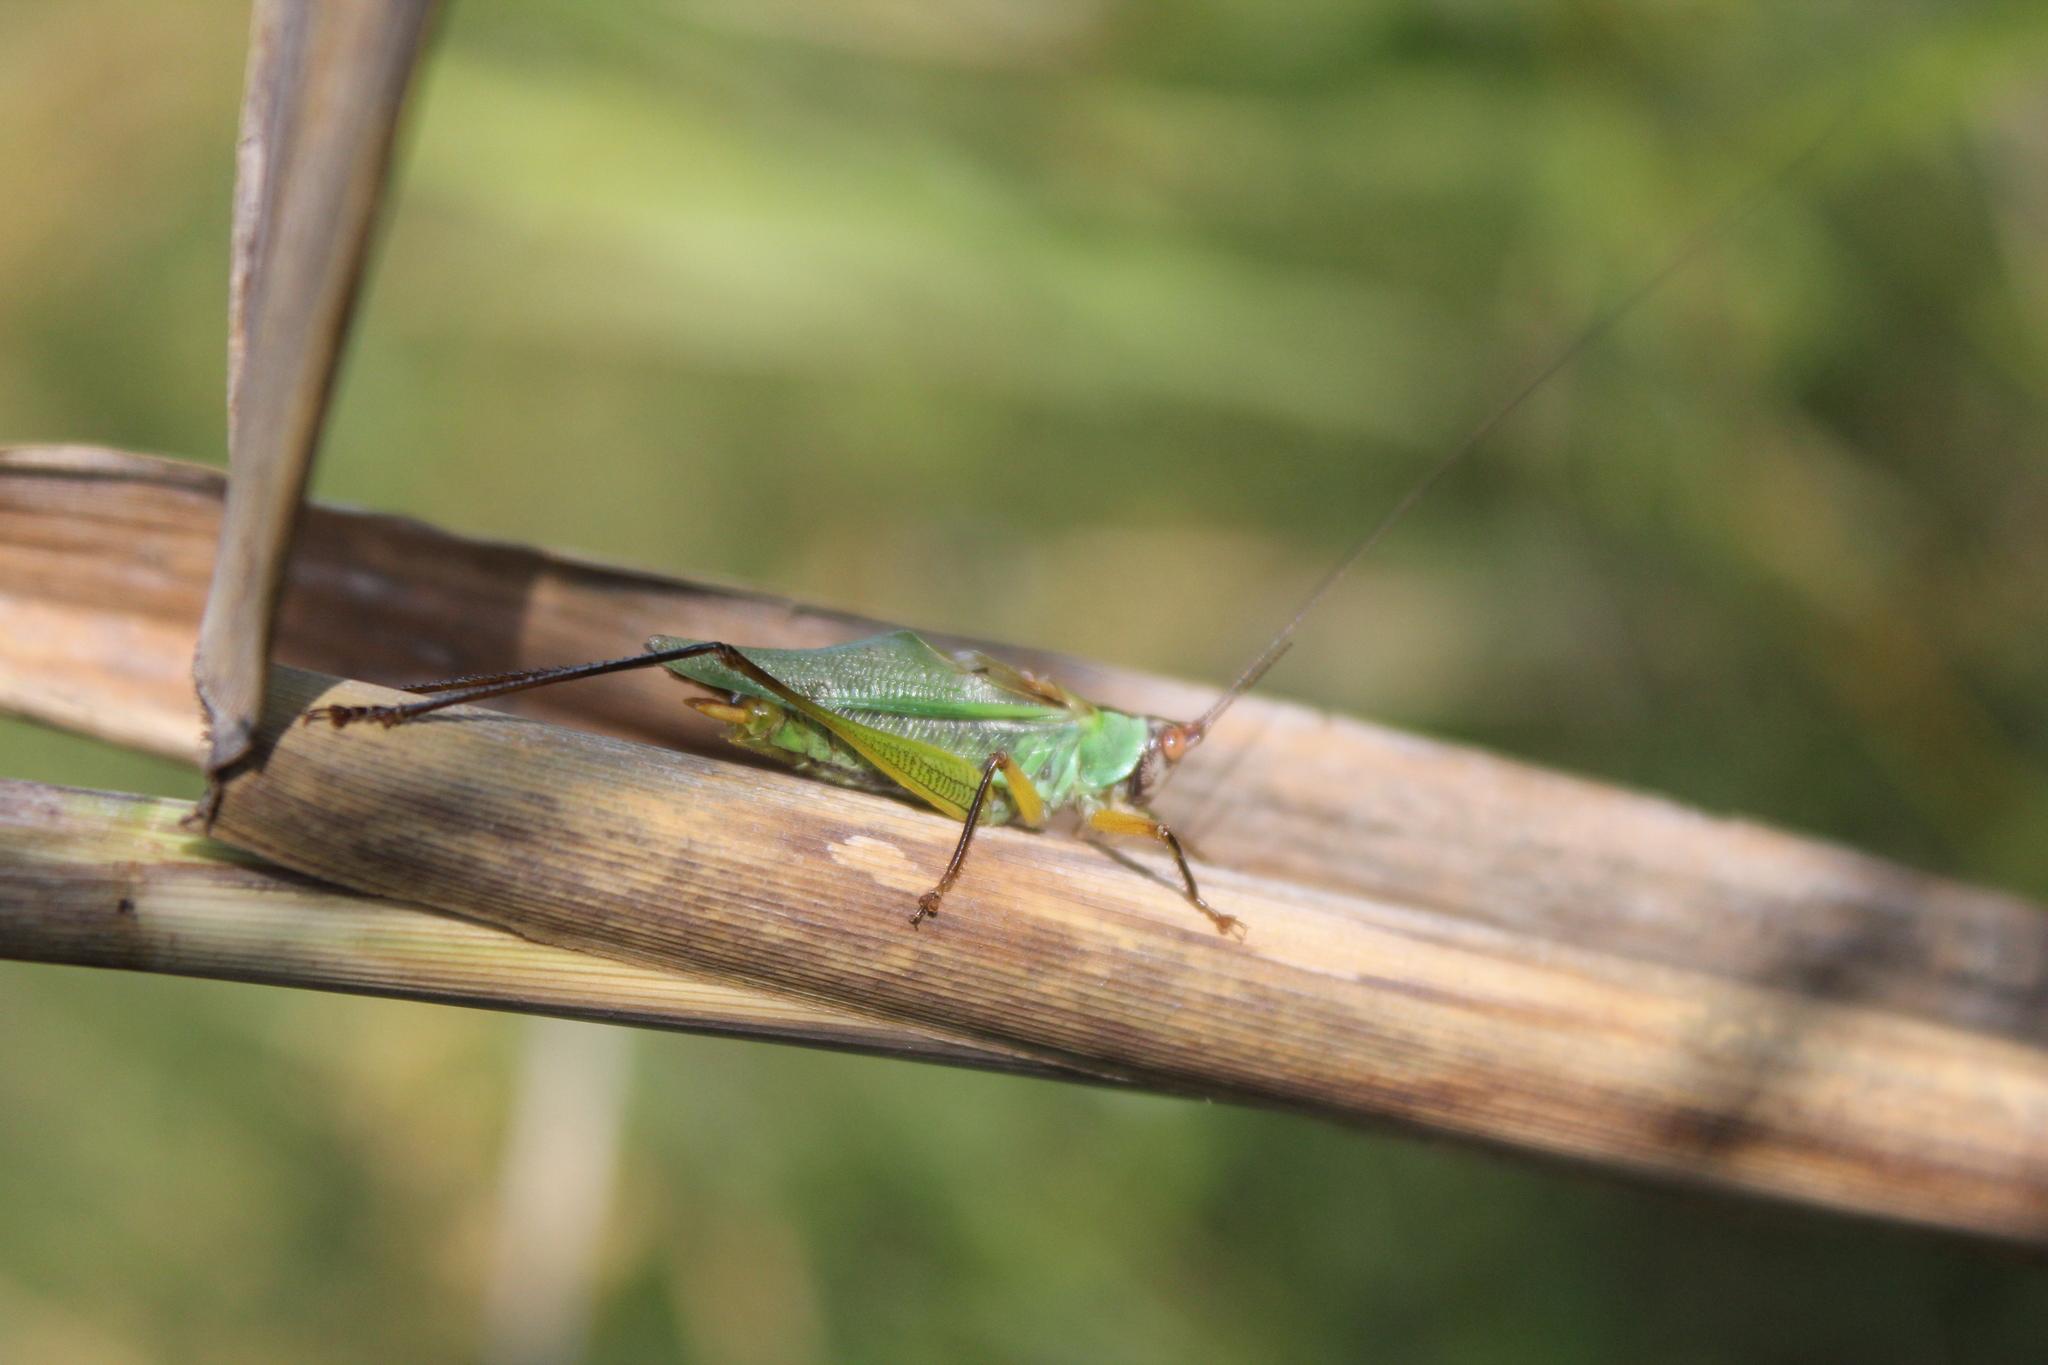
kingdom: Animalia
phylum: Arthropoda
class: Insecta
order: Orthoptera
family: Tettigoniidae
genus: Orchelimum
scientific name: Orchelimum nigripes
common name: Black-legged meadow katydid
